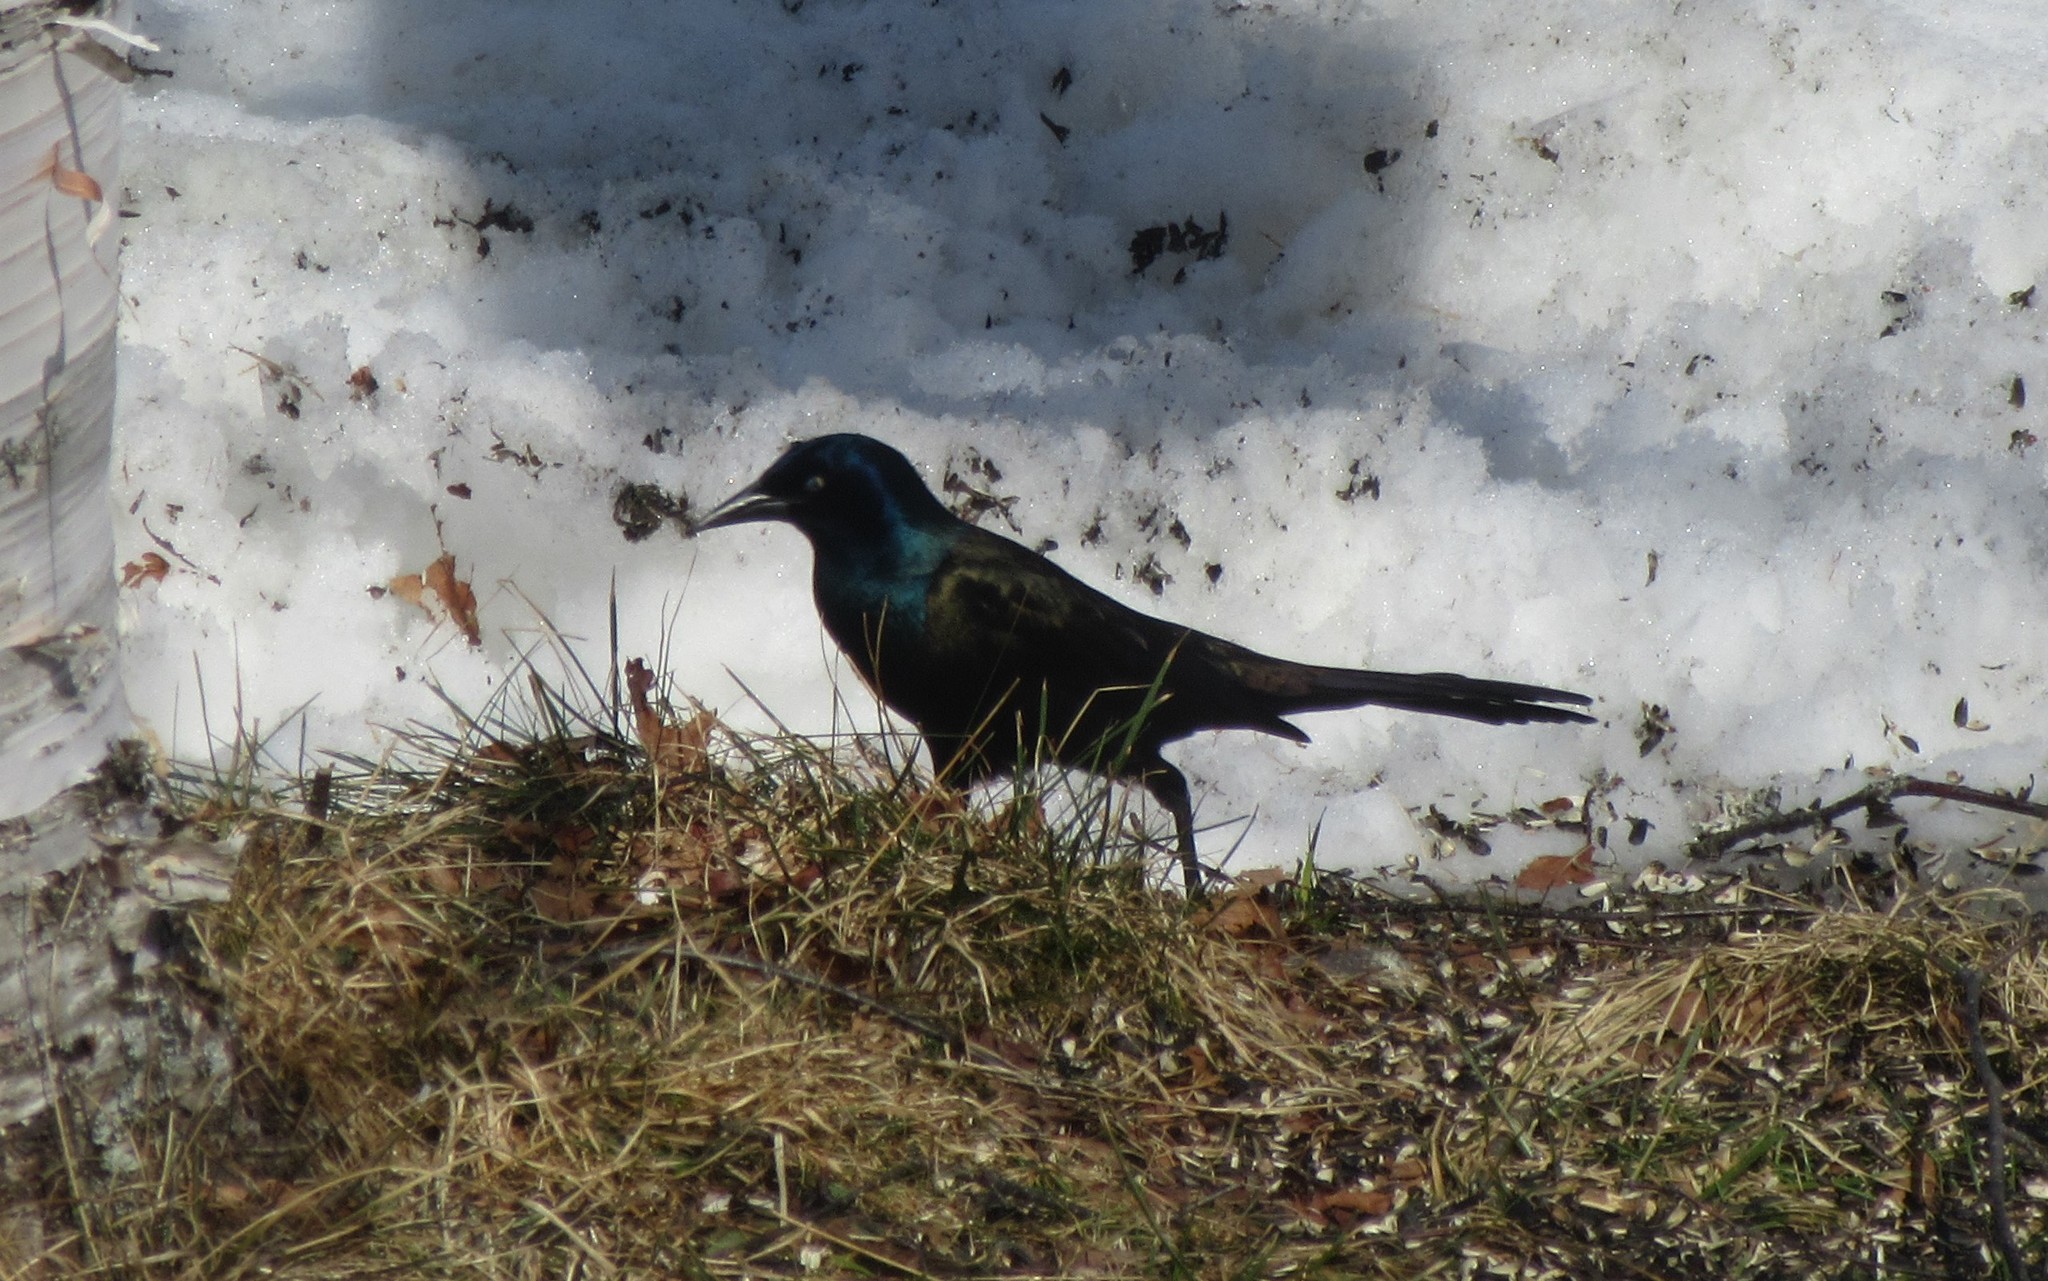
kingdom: Animalia
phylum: Chordata
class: Aves
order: Passeriformes
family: Icteridae
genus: Quiscalus
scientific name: Quiscalus quiscula
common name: Common grackle
